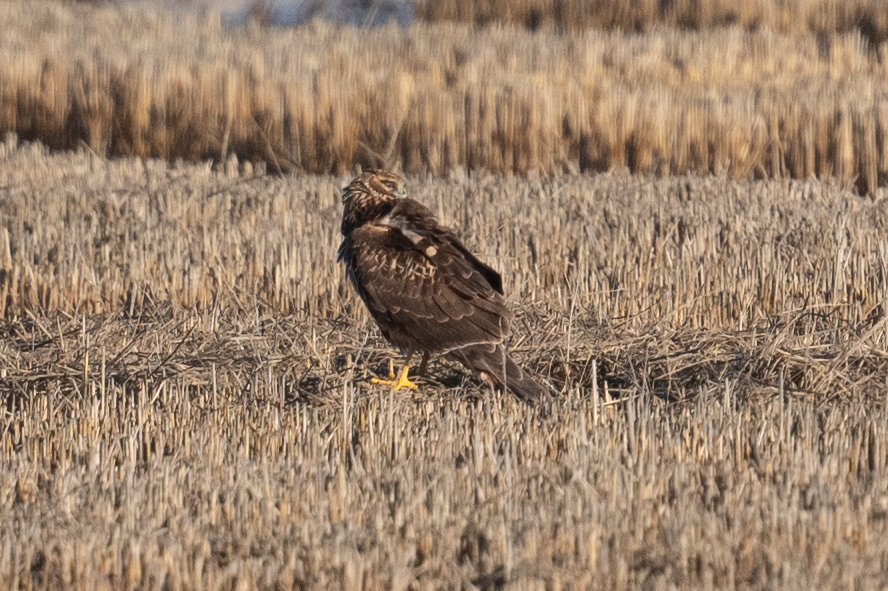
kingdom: Animalia
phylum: Chordata
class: Aves
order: Accipitriformes
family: Accipitridae
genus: Circus
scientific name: Circus cyaneus
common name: Hen harrier
